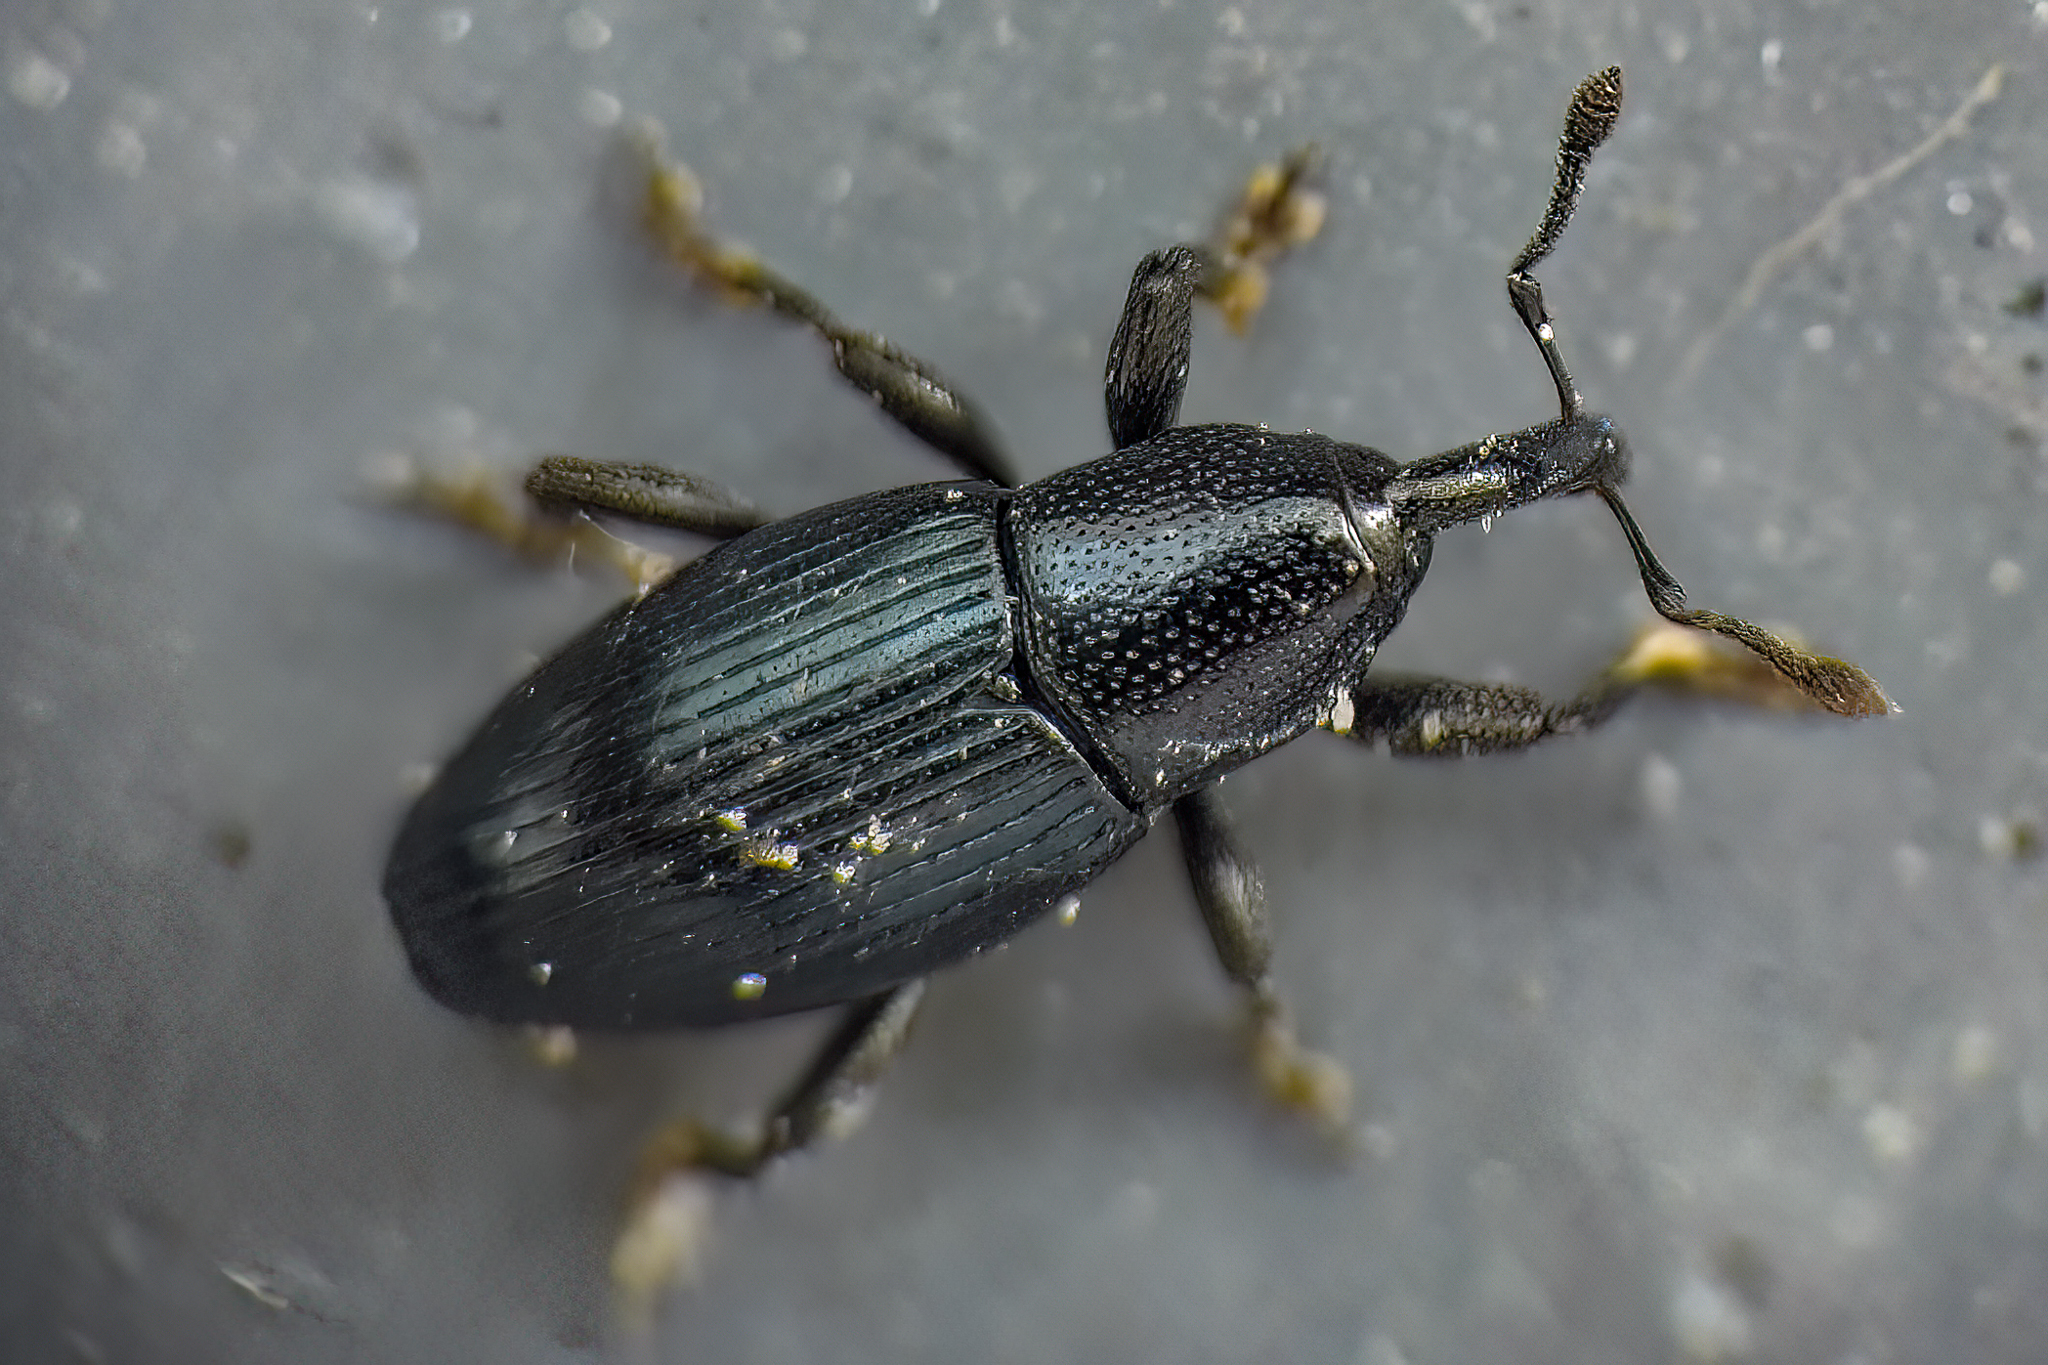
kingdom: Animalia
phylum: Arthropoda
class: Insecta
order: Coleoptera
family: Curculionidae
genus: Aulacobaris
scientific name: Aulacobaris lepidii
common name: Cress tooth weevil
